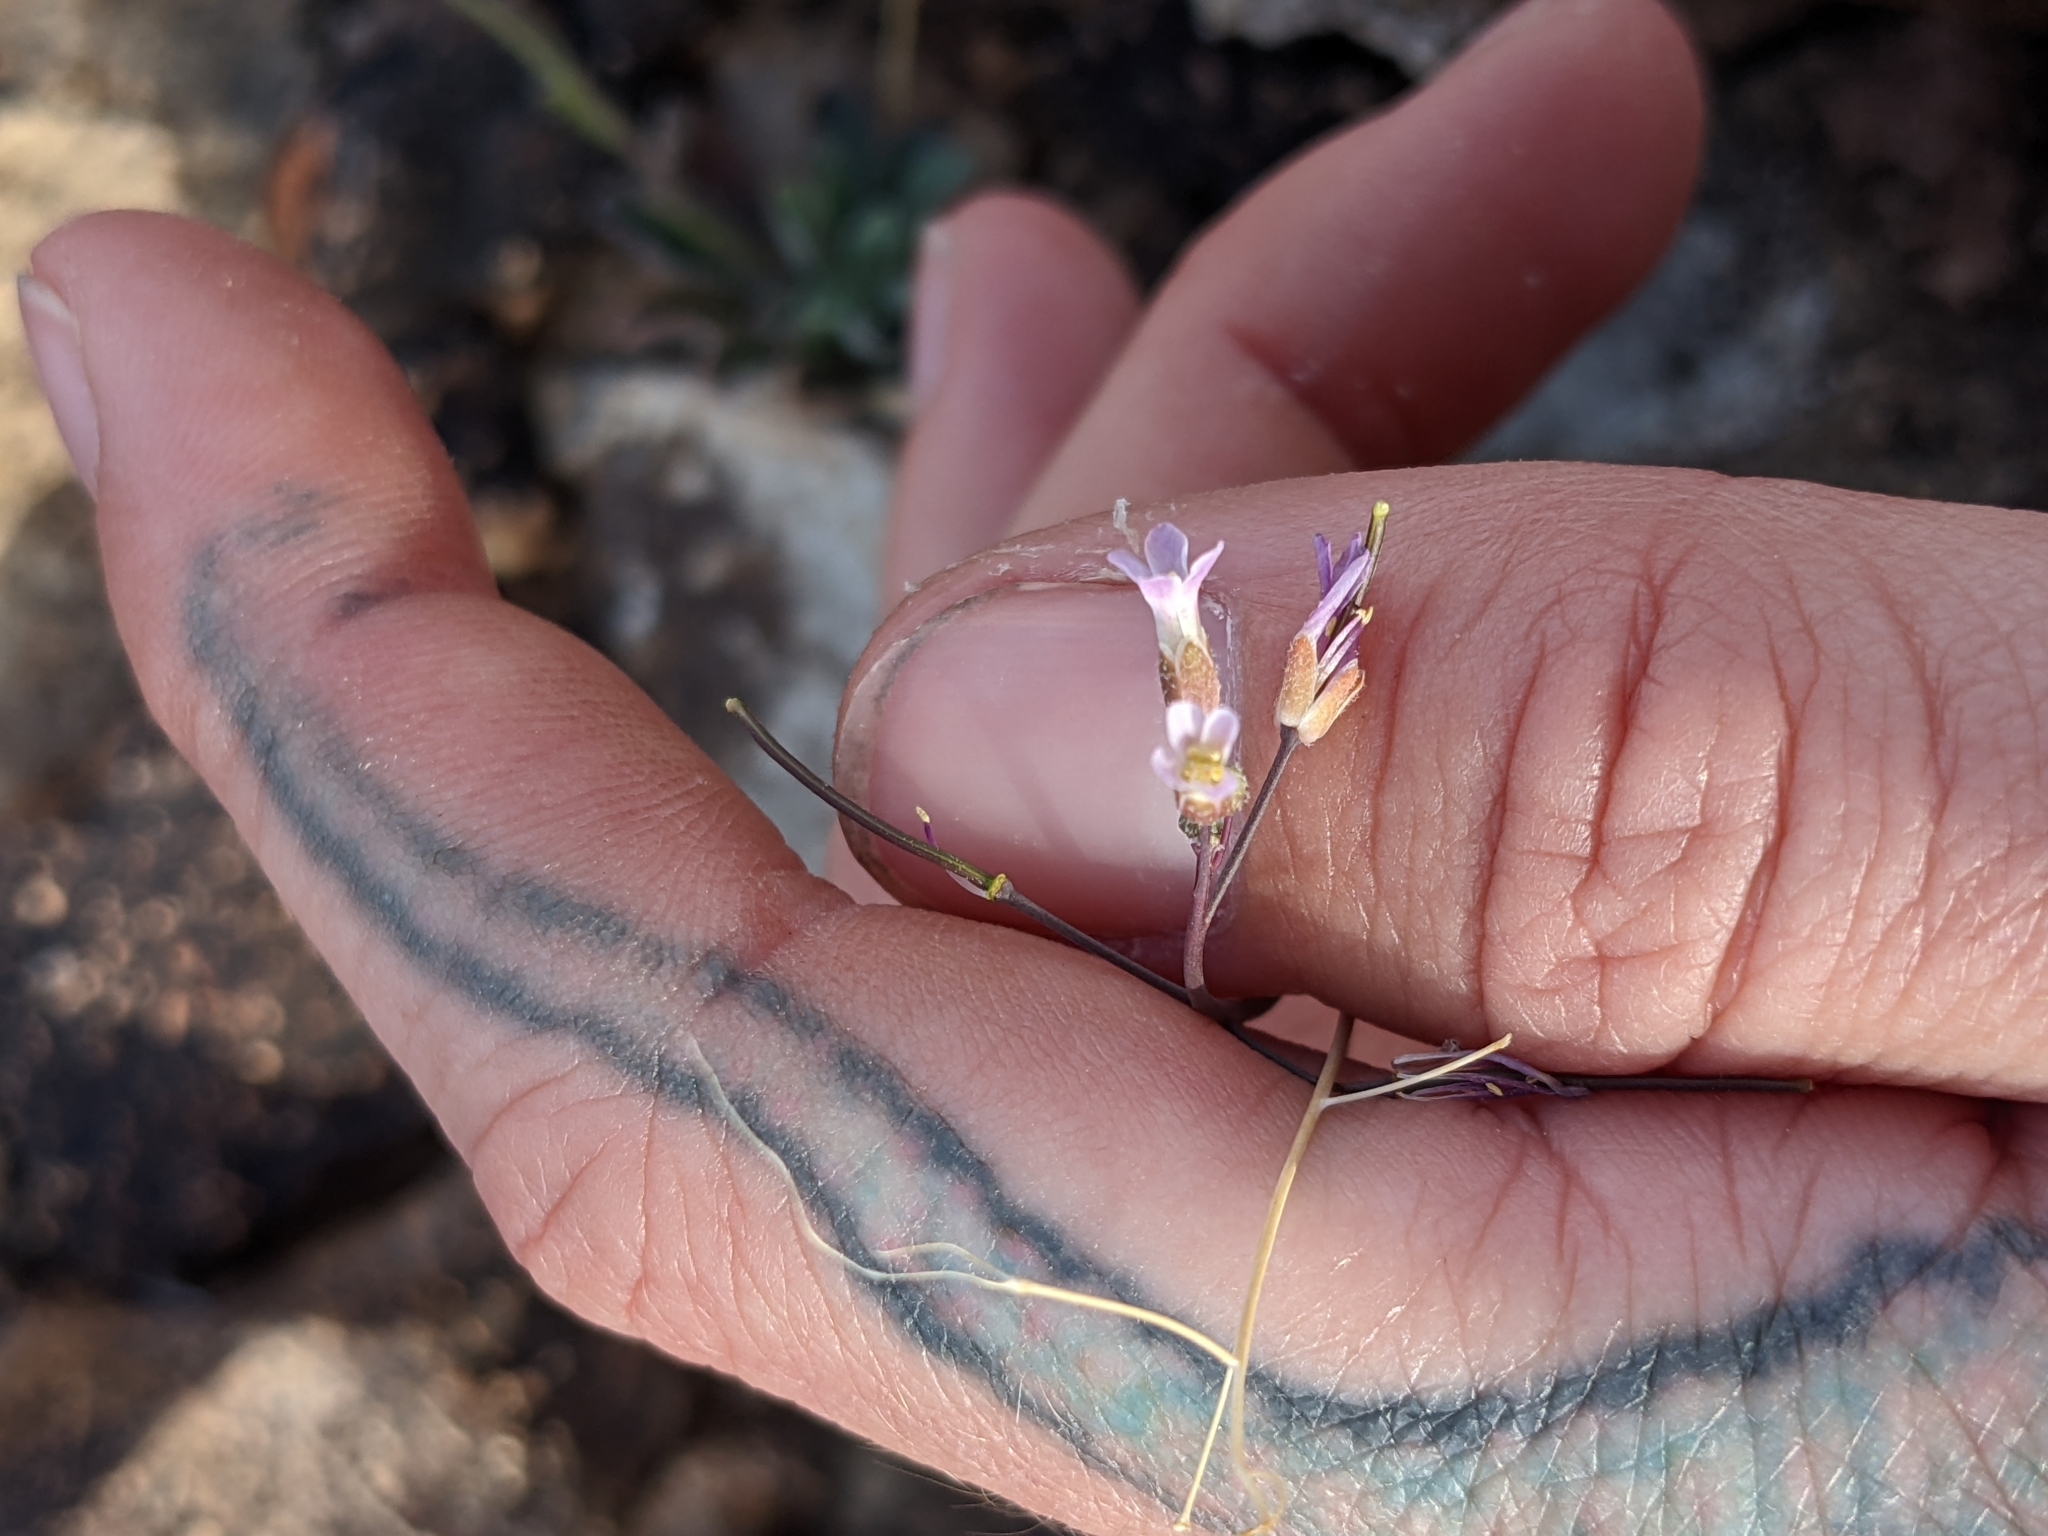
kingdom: Plantae
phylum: Tracheophyta
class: Magnoliopsida
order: Brassicales
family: Brassicaceae
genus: Boechera
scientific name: Boechera perennans
